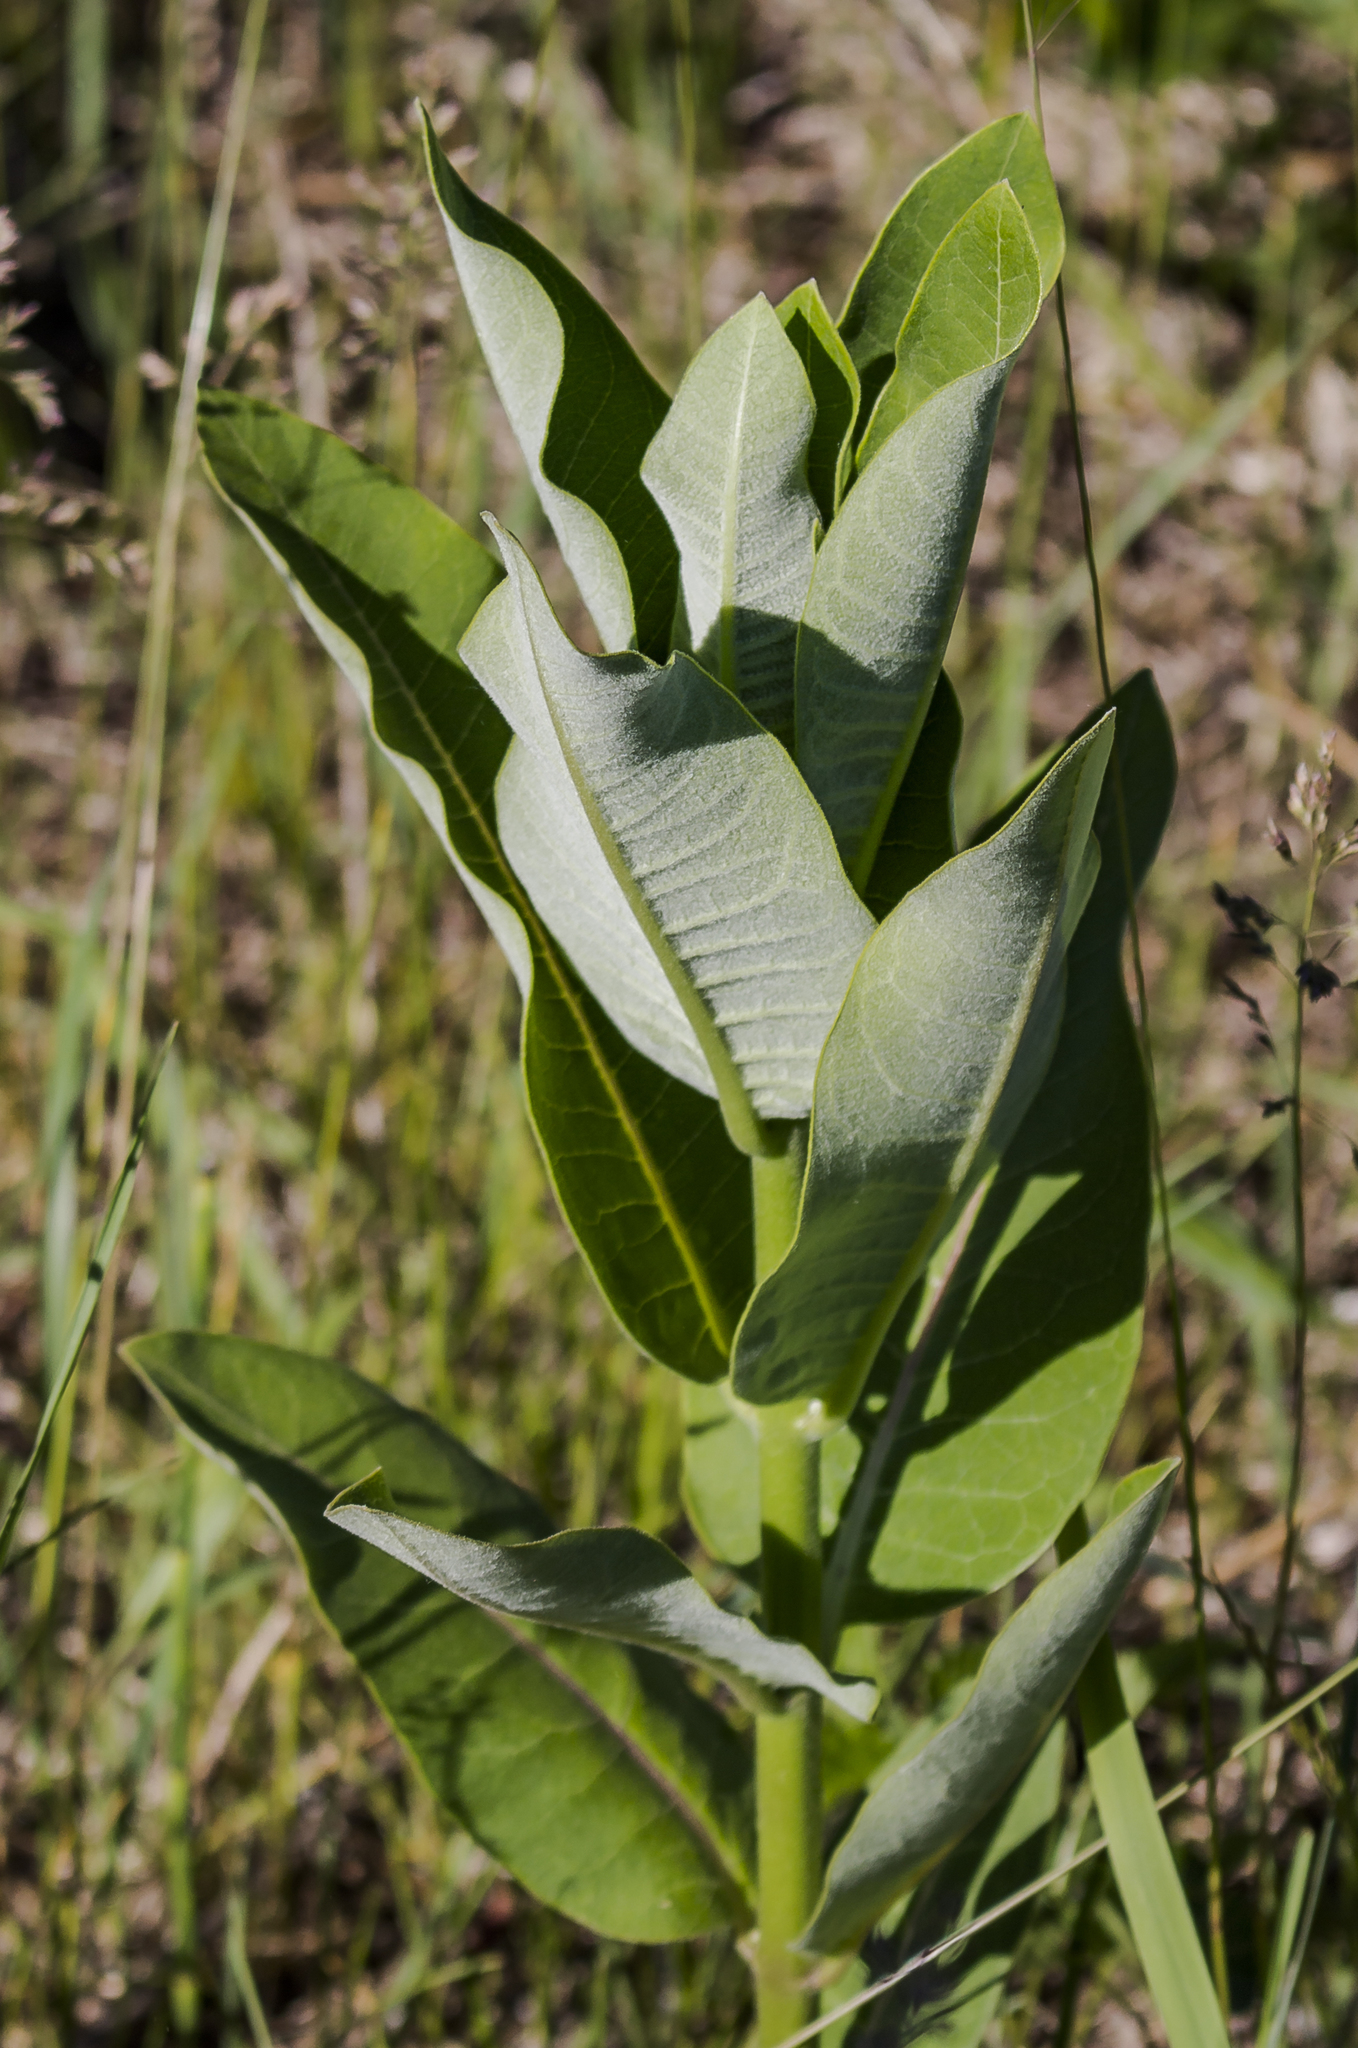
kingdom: Plantae
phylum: Tracheophyta
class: Magnoliopsida
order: Gentianales
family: Apocynaceae
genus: Asclepias
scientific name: Asclepias syriaca
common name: Common milkweed
